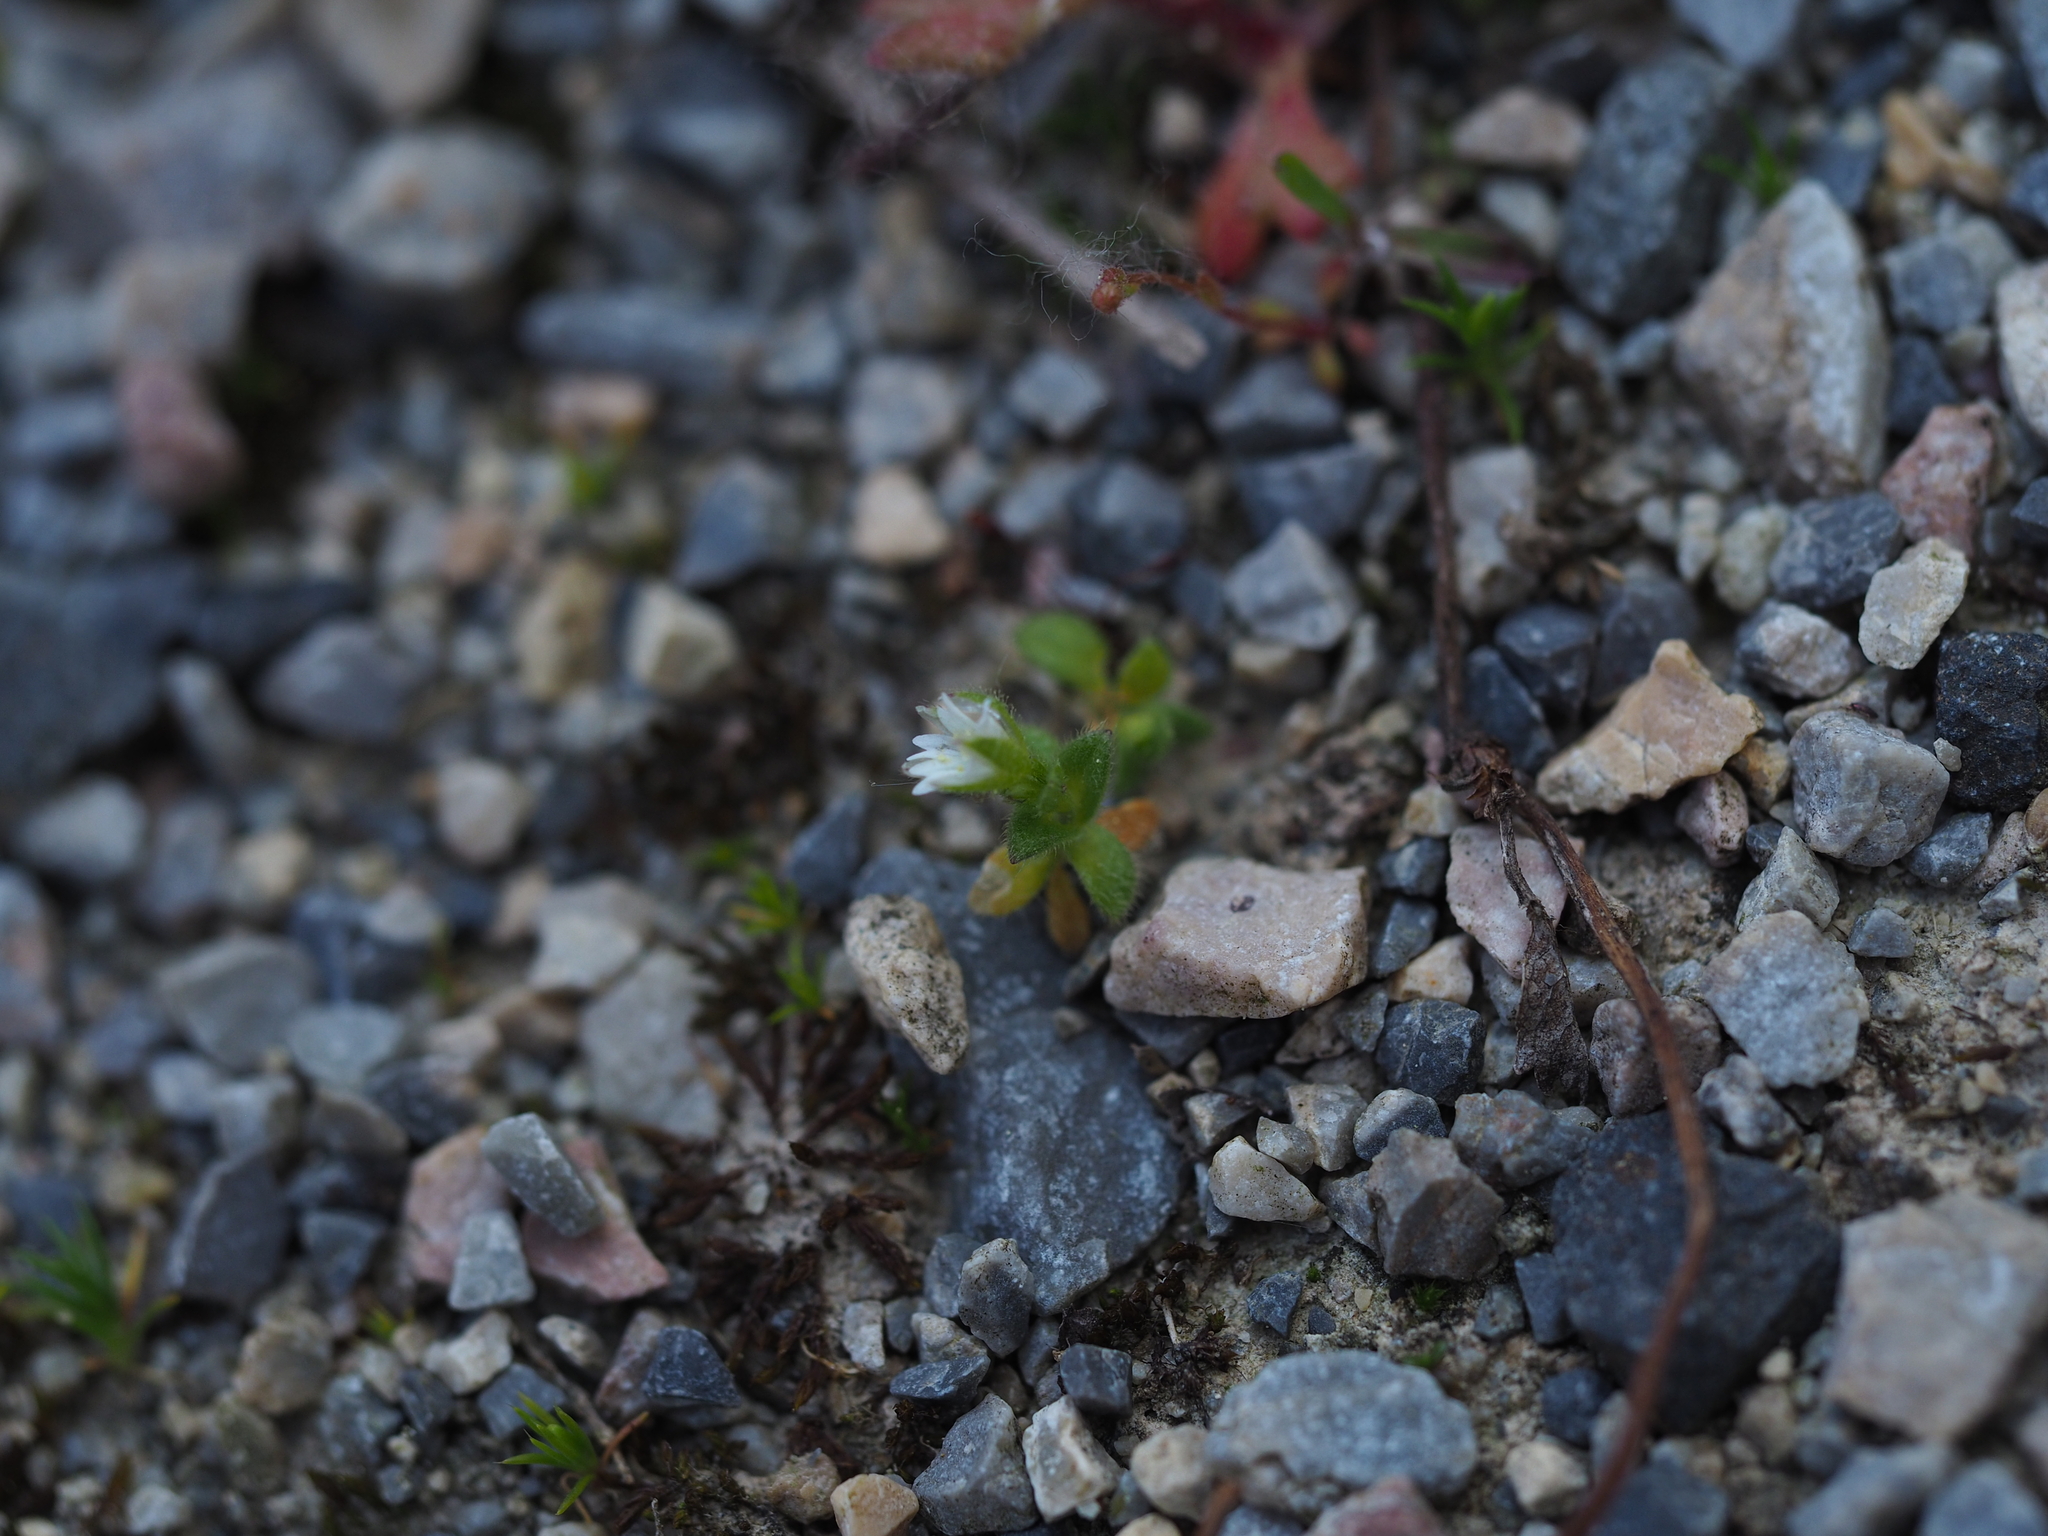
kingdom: Plantae
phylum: Tracheophyta
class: Magnoliopsida
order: Caryophyllales
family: Caryophyllaceae
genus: Cerastium
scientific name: Cerastium glutinosum
